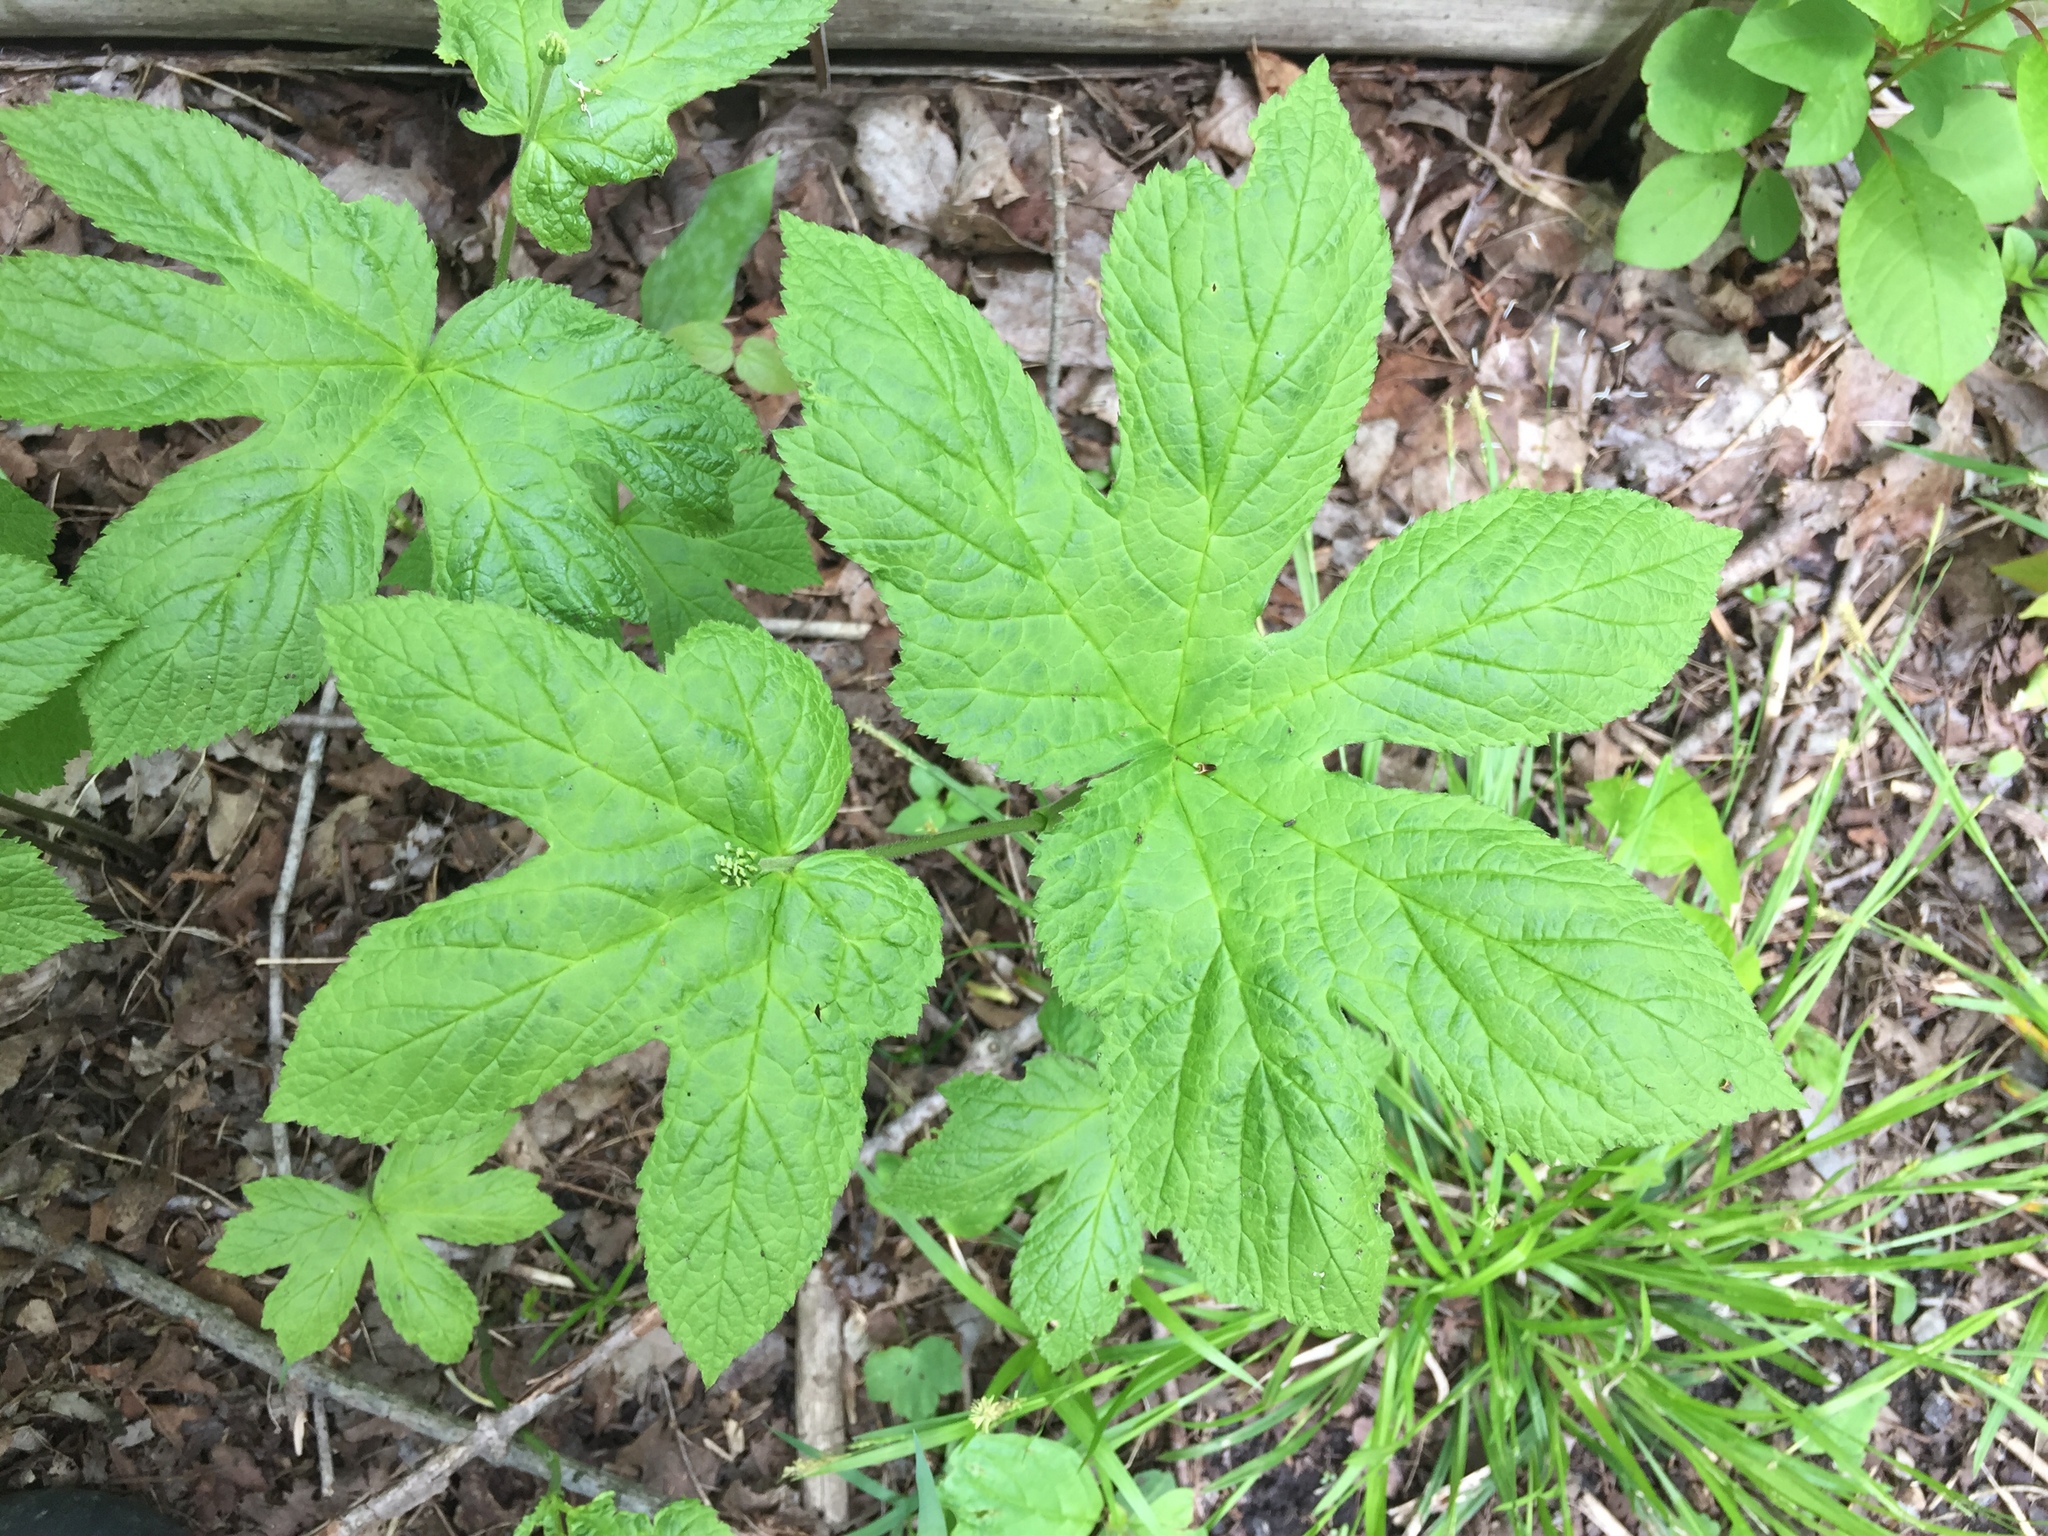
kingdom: Plantae
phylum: Tracheophyta
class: Magnoliopsida
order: Ranunculales
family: Ranunculaceae
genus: Hydrastis
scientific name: Hydrastis canadensis
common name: Goldenseal
